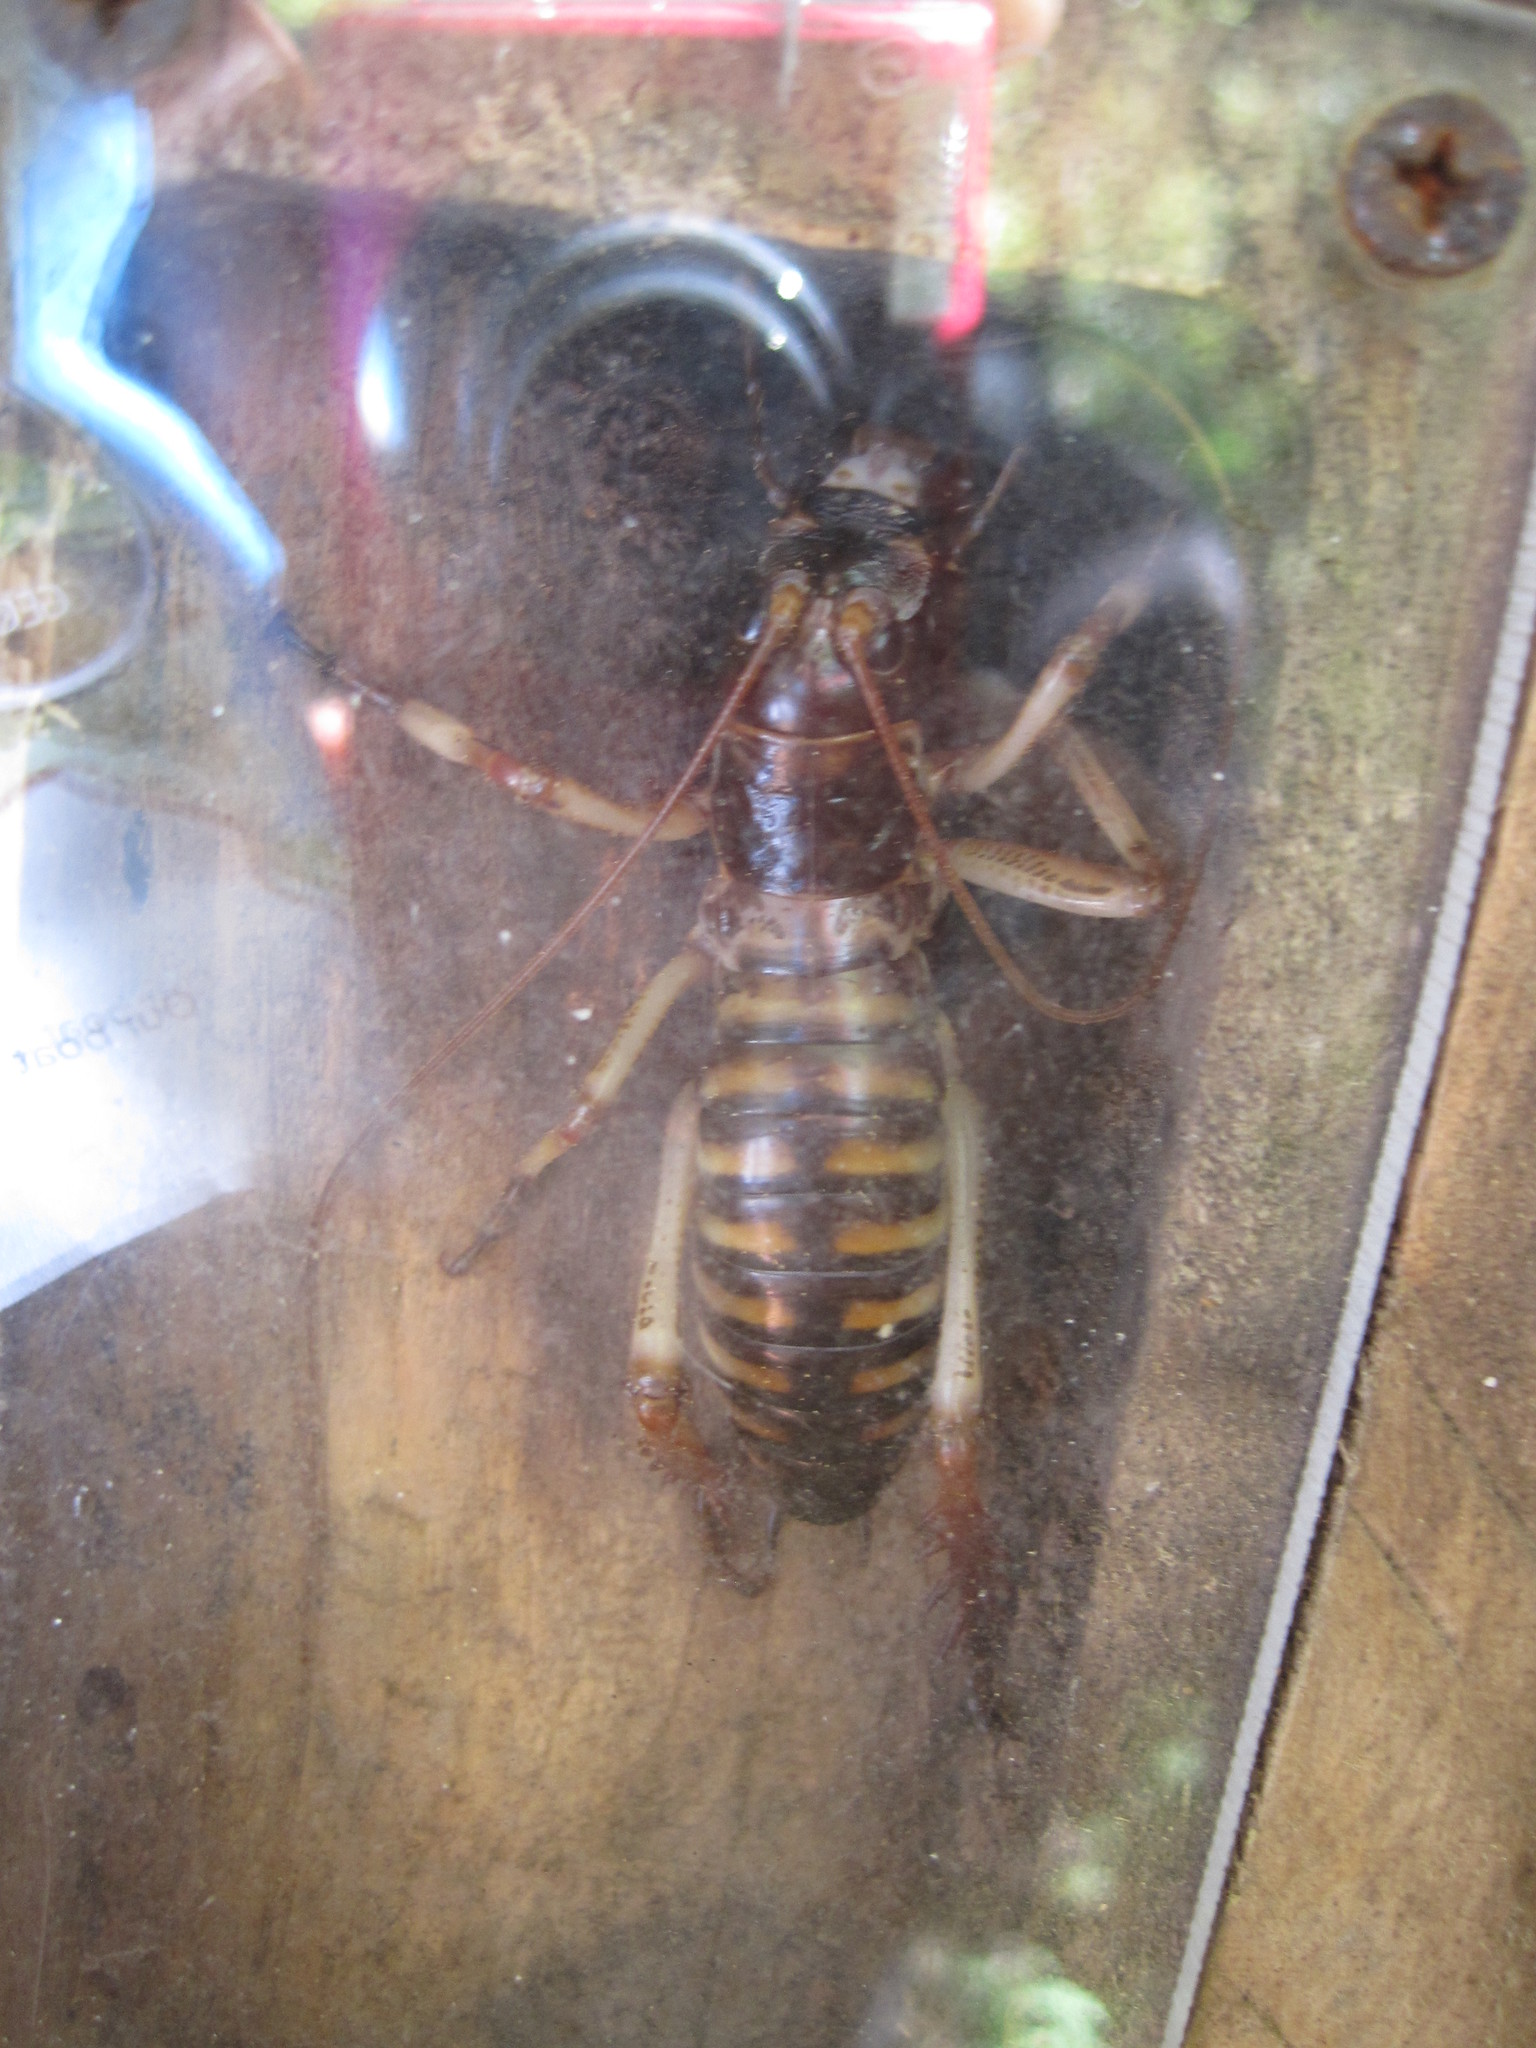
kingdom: Animalia
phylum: Arthropoda
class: Insecta
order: Orthoptera
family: Anostostomatidae
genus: Hemideina
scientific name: Hemideina crassidens
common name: Wellington tree weta
